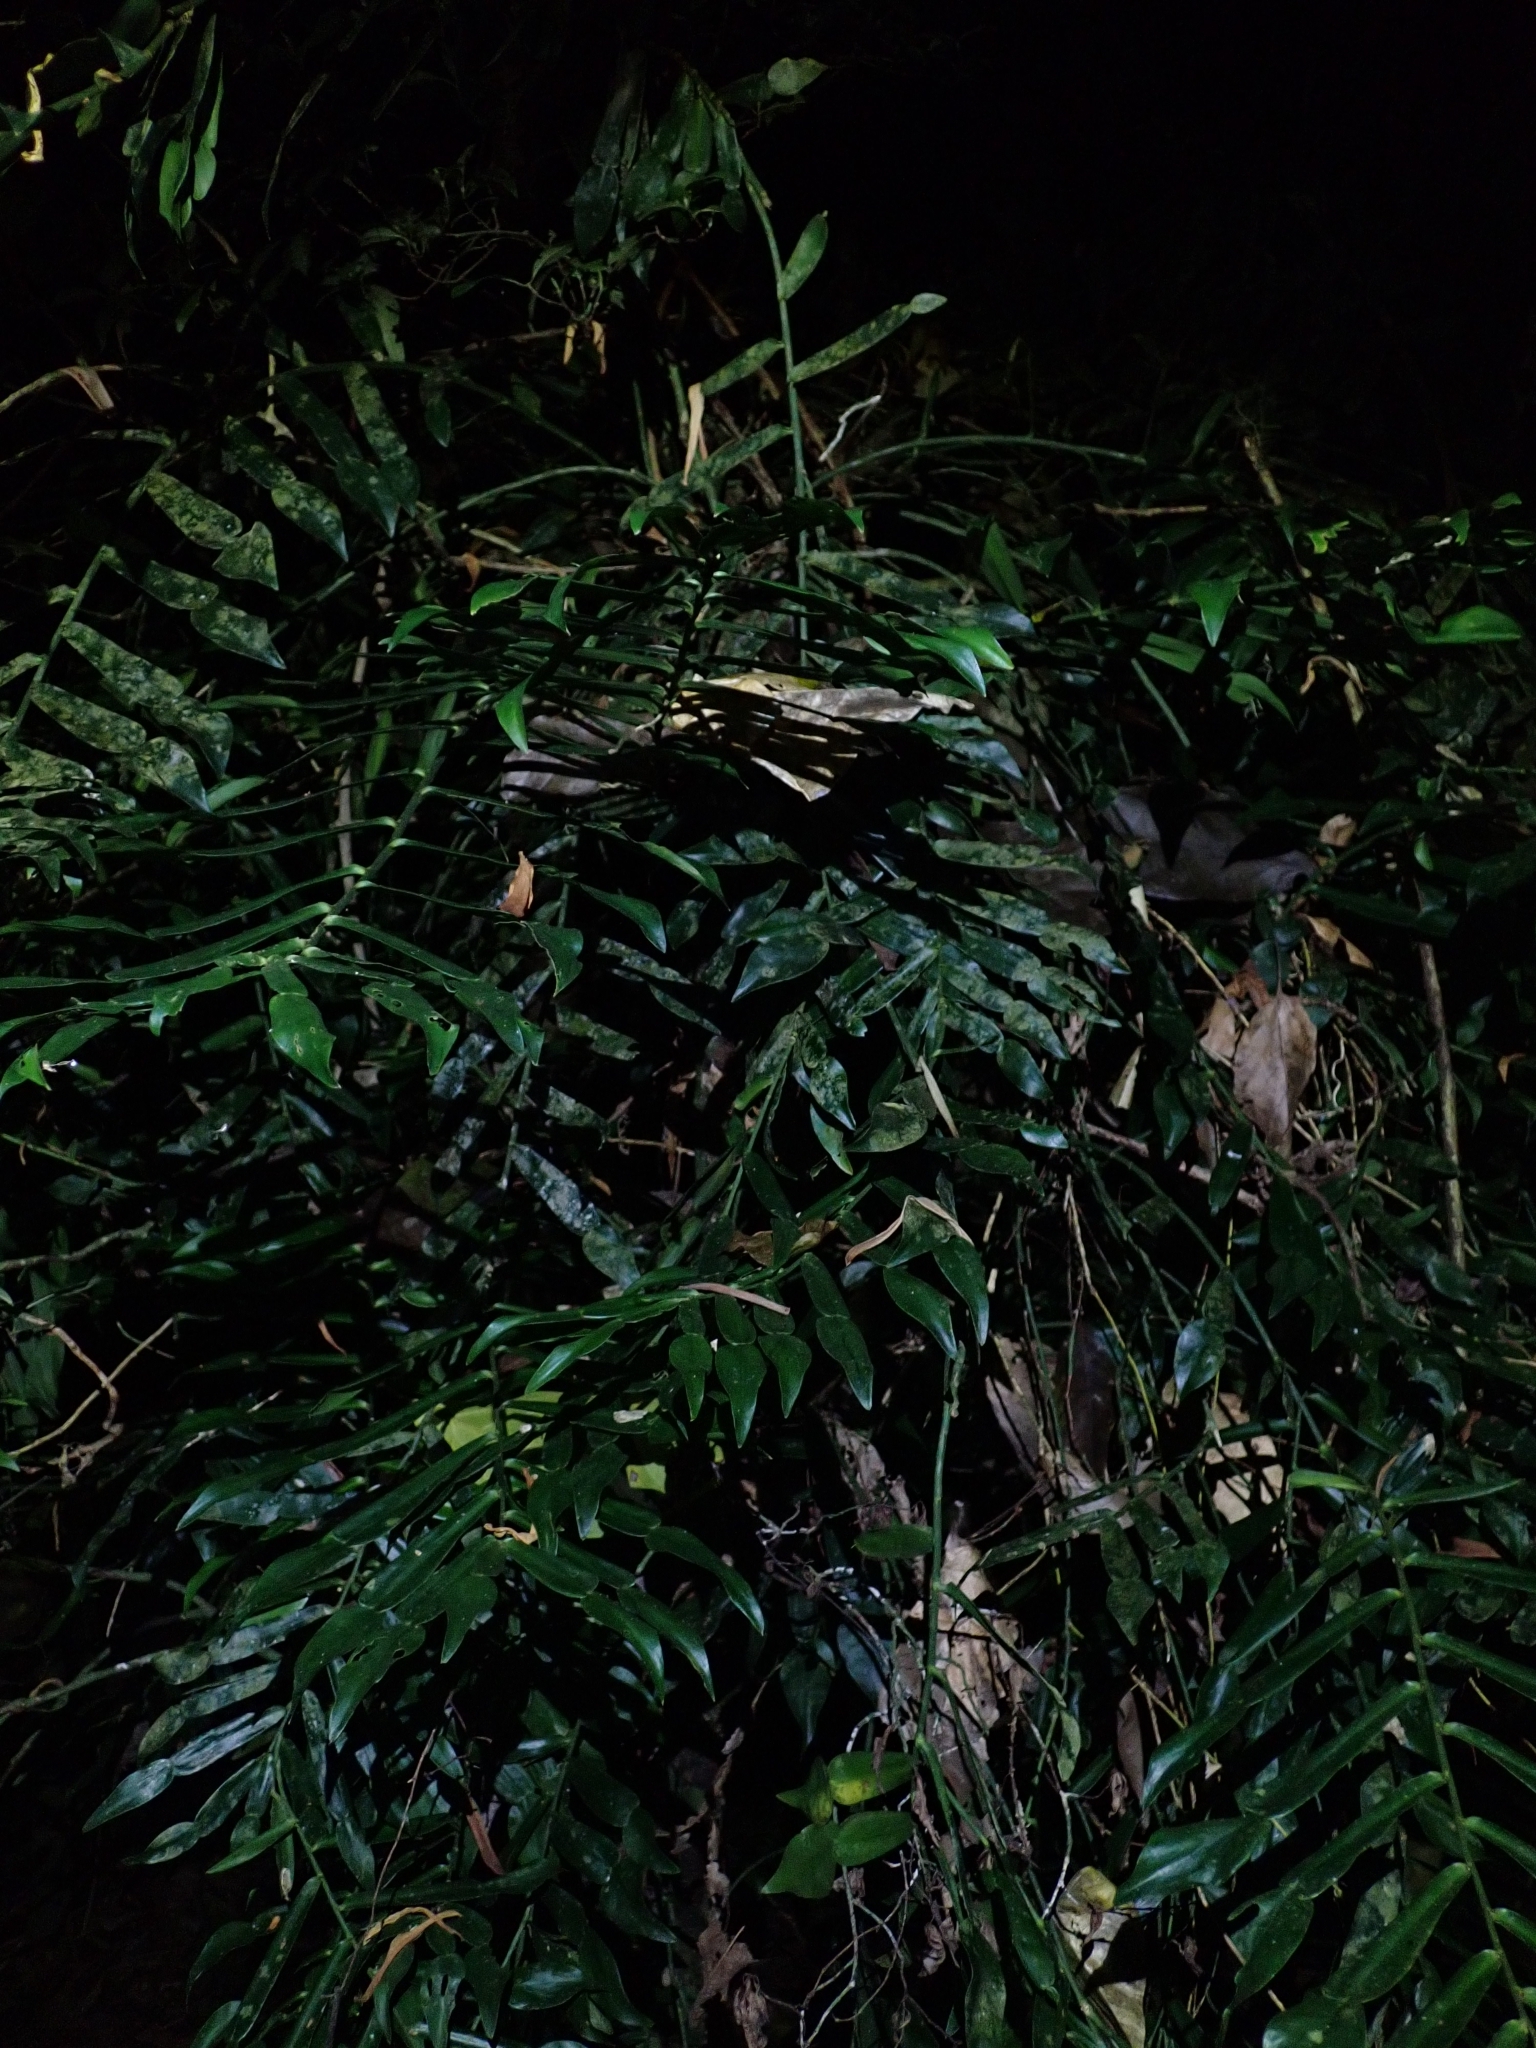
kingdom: Plantae
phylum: Tracheophyta
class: Liliopsida
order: Alismatales
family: Araceae
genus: Pothos
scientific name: Pothos longipes
